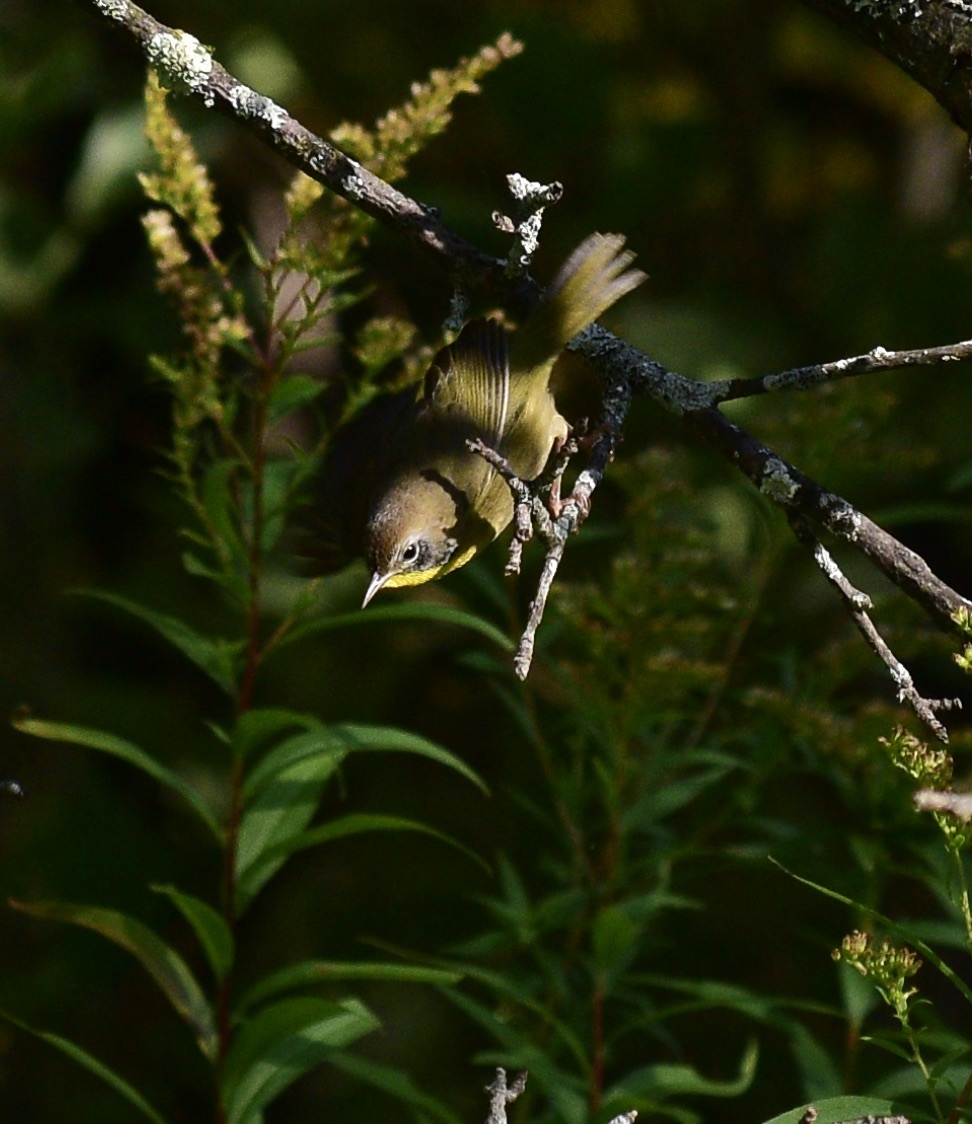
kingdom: Animalia
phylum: Chordata
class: Aves
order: Passeriformes
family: Parulidae
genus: Geothlypis
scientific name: Geothlypis trichas
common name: Common yellowthroat
